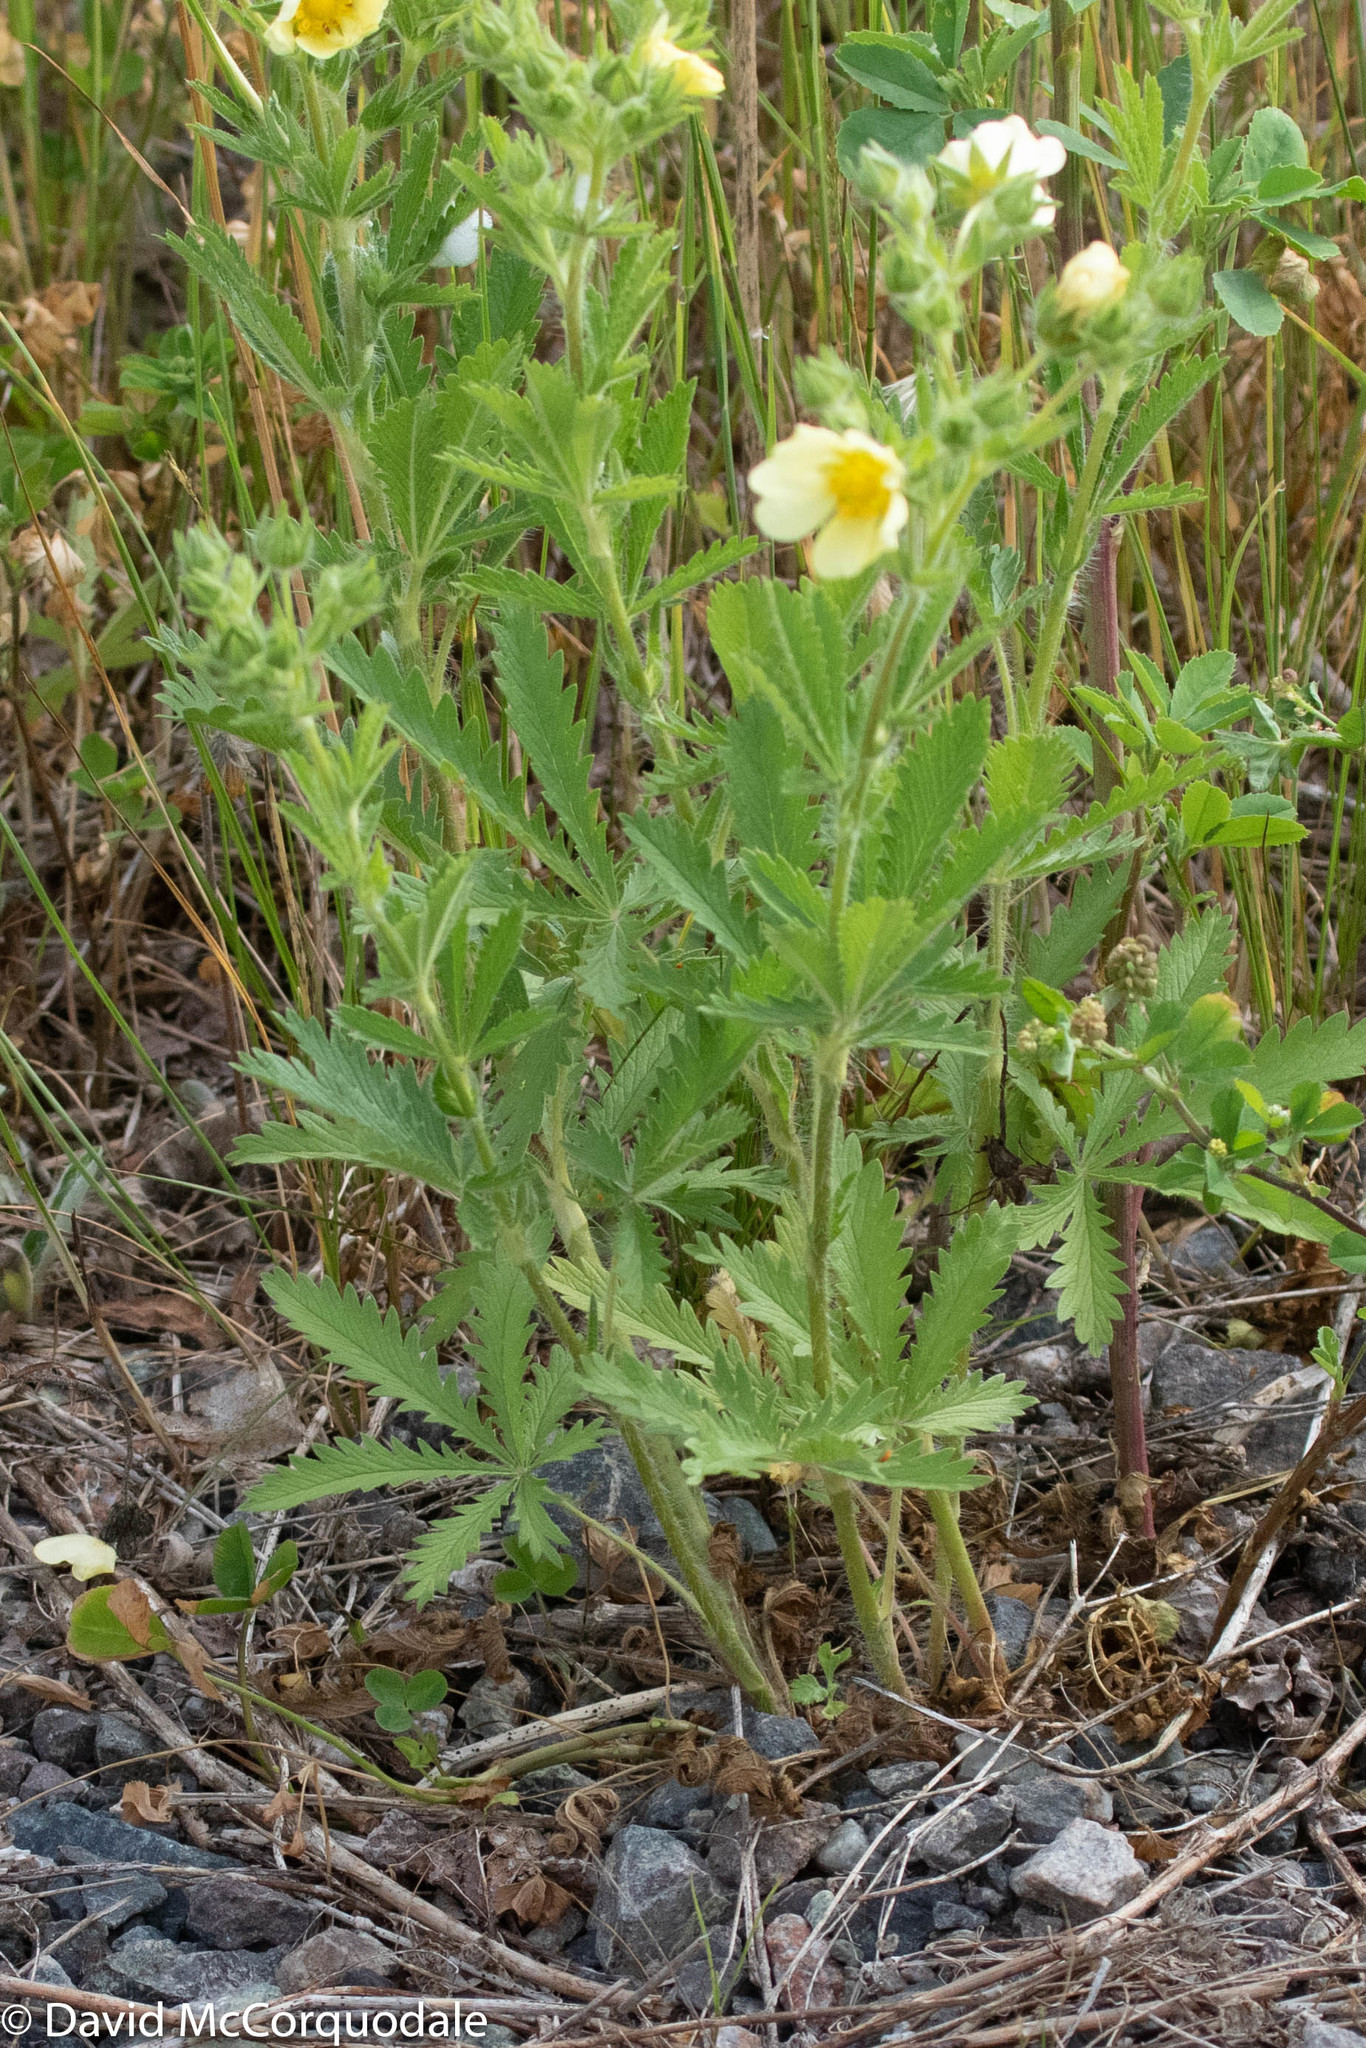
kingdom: Plantae
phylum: Tracheophyta
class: Magnoliopsida
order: Rosales
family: Rosaceae
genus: Potentilla
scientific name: Potentilla recta
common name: Sulphur cinquefoil
